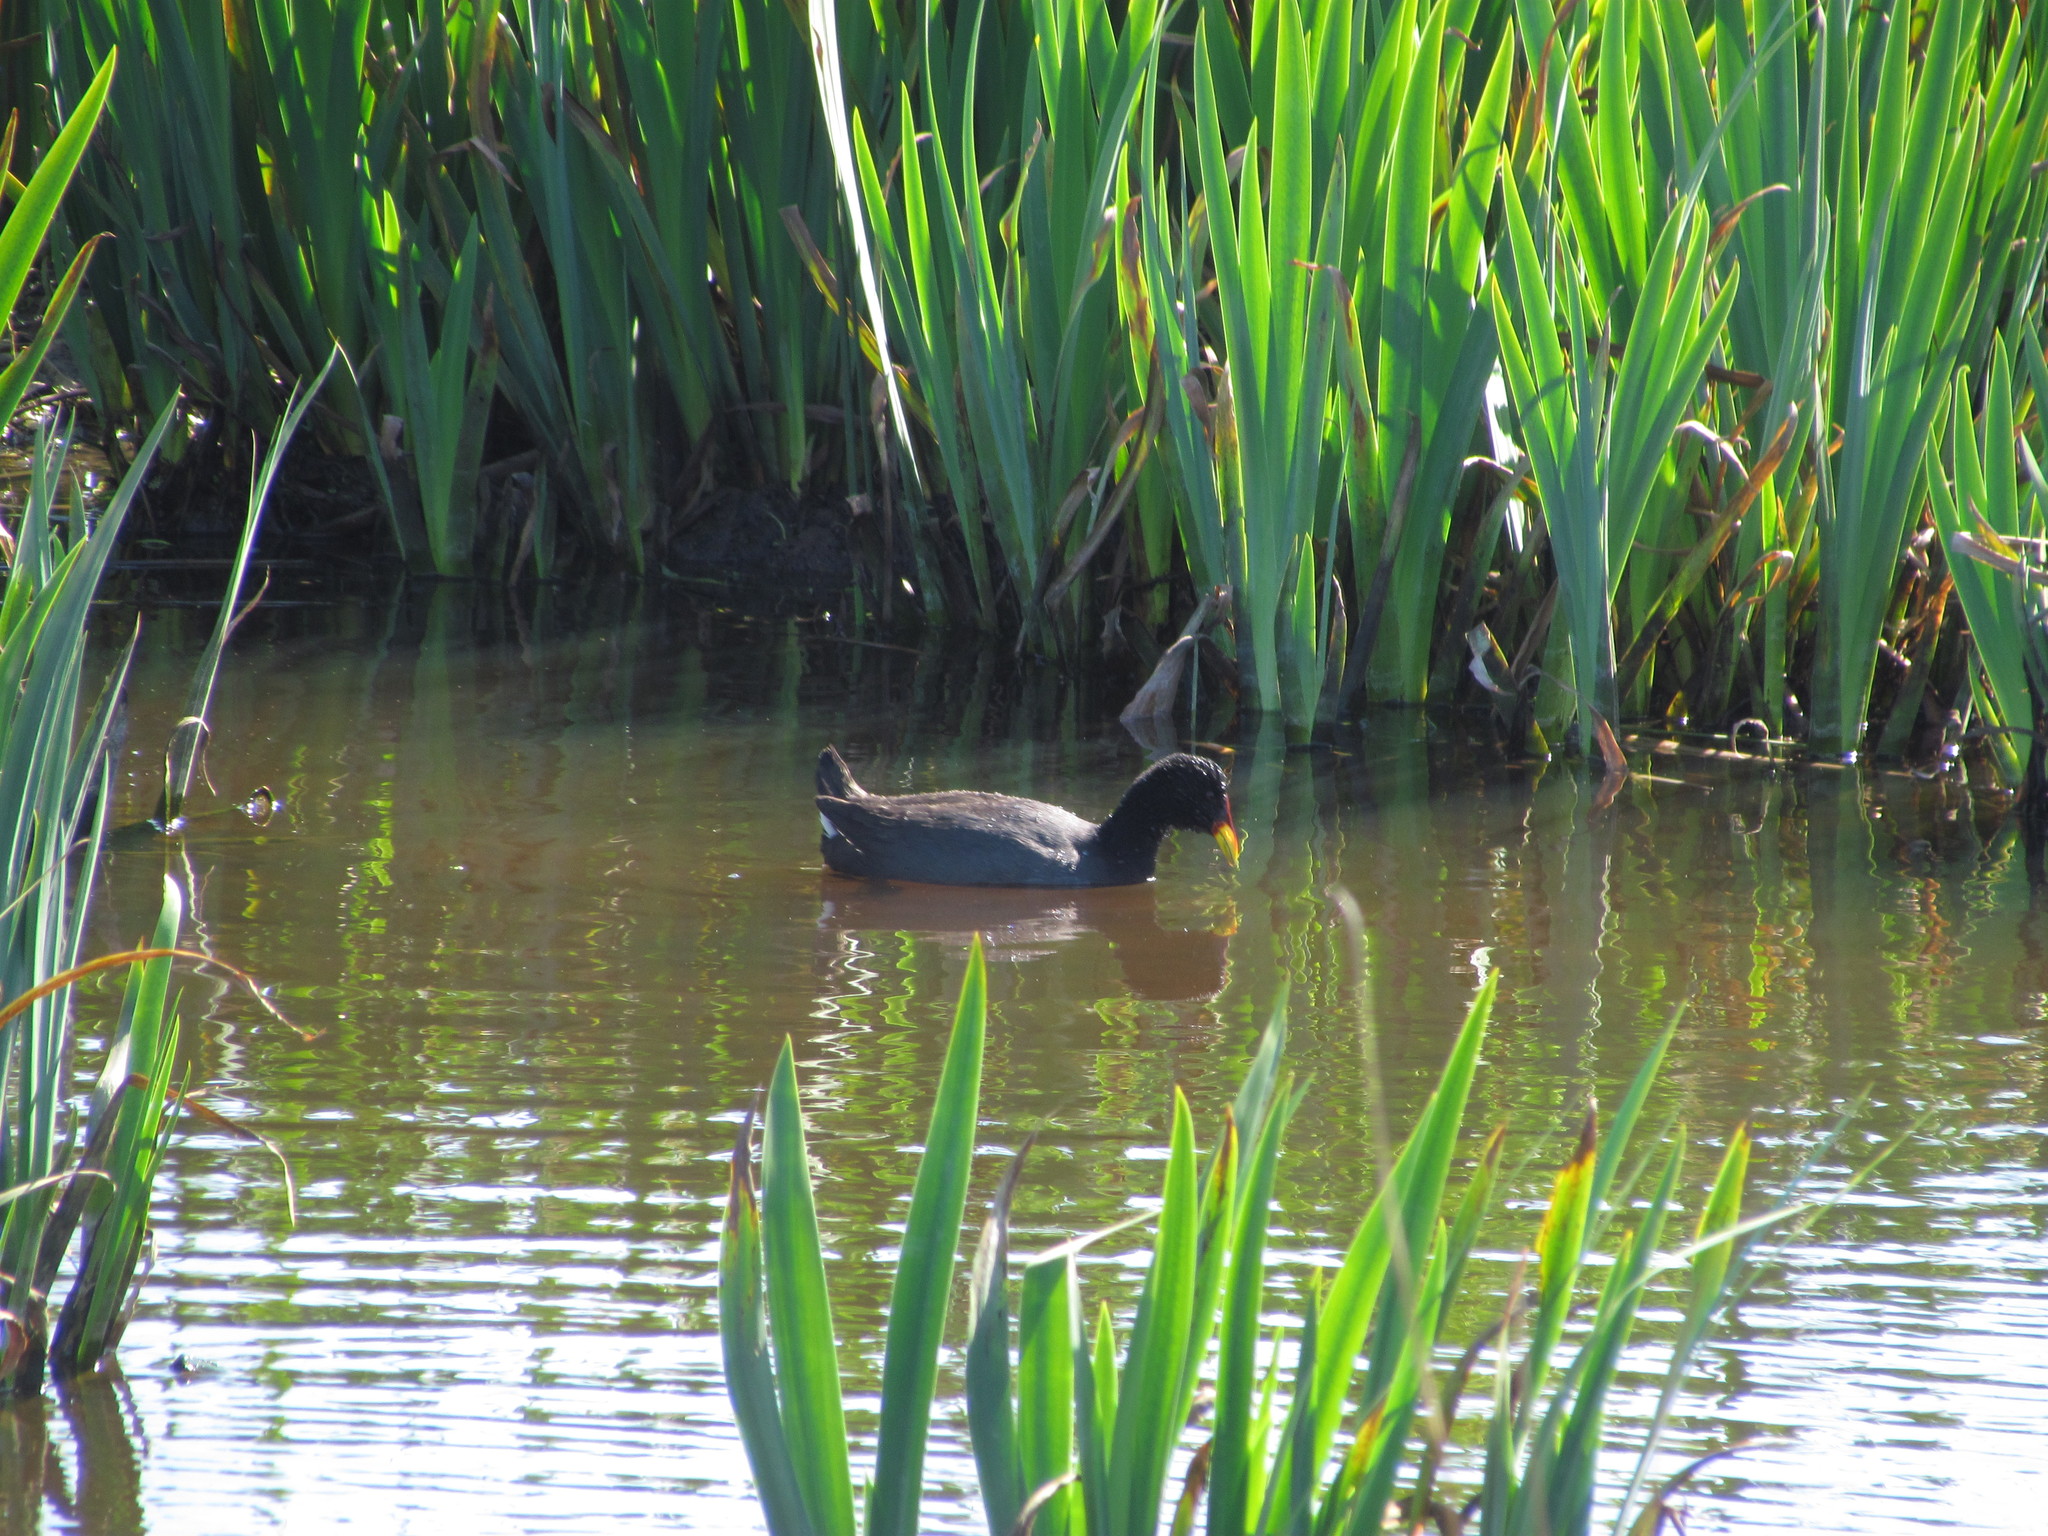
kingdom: Animalia
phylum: Chordata
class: Aves
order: Gruiformes
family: Rallidae
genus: Fulica
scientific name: Fulica rufifrons
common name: Red-fronted coot
